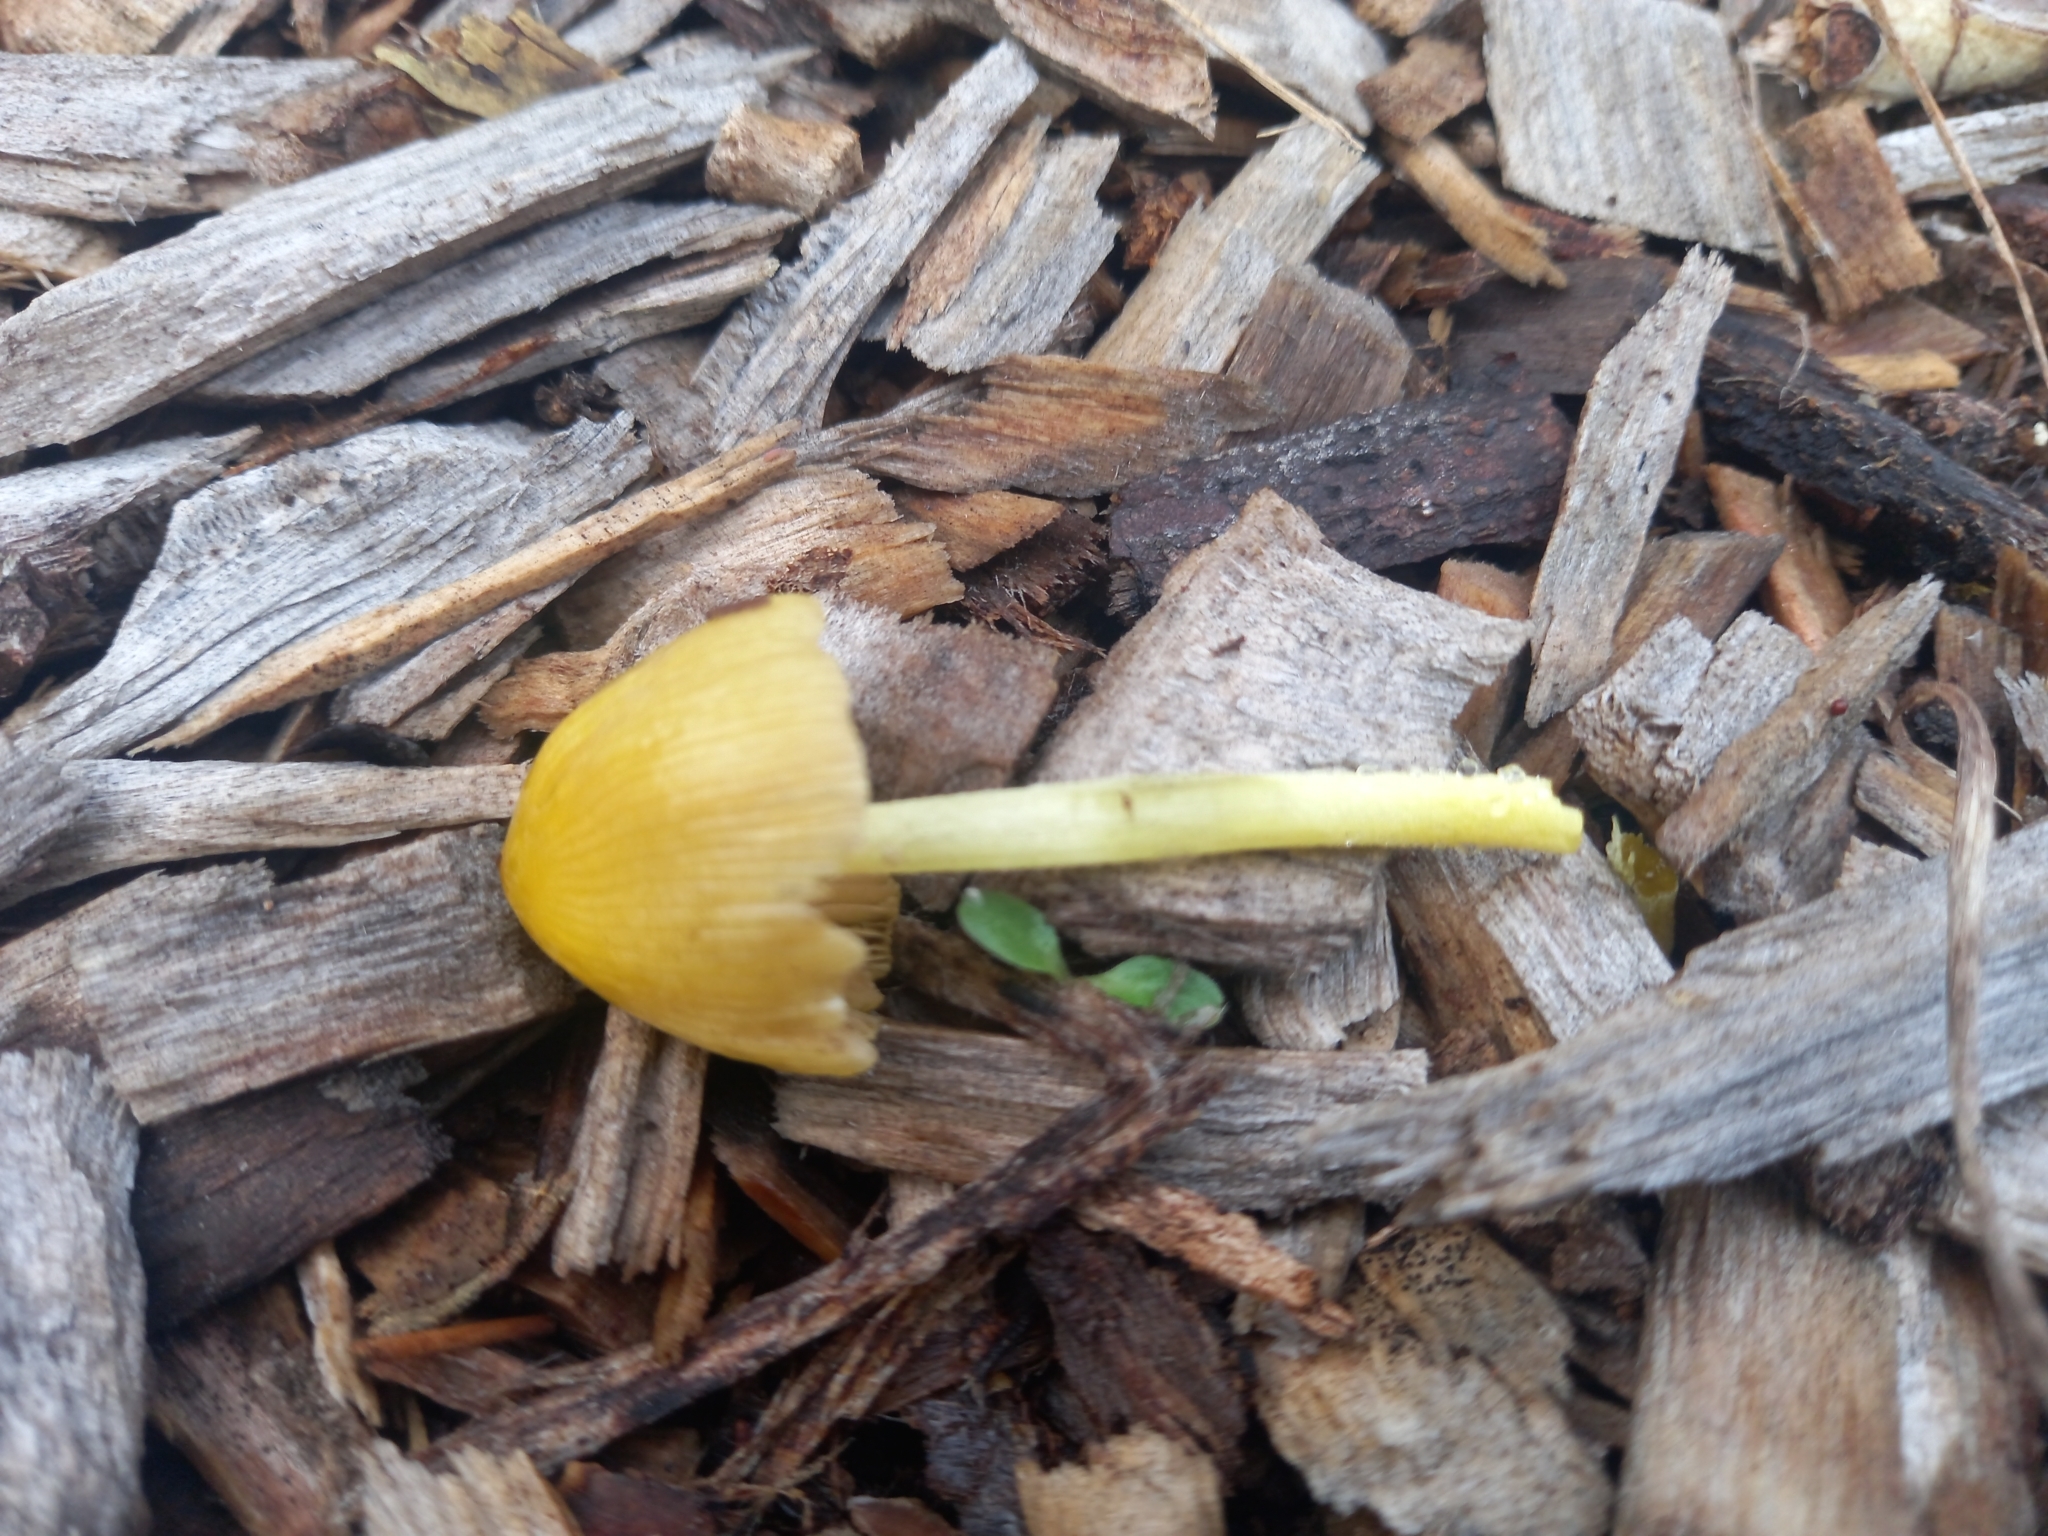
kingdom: Fungi
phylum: Basidiomycota
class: Agaricomycetes
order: Agaricales
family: Bolbitiaceae
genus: Bolbitius
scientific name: Bolbitius titubans
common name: Yellow fieldcap
